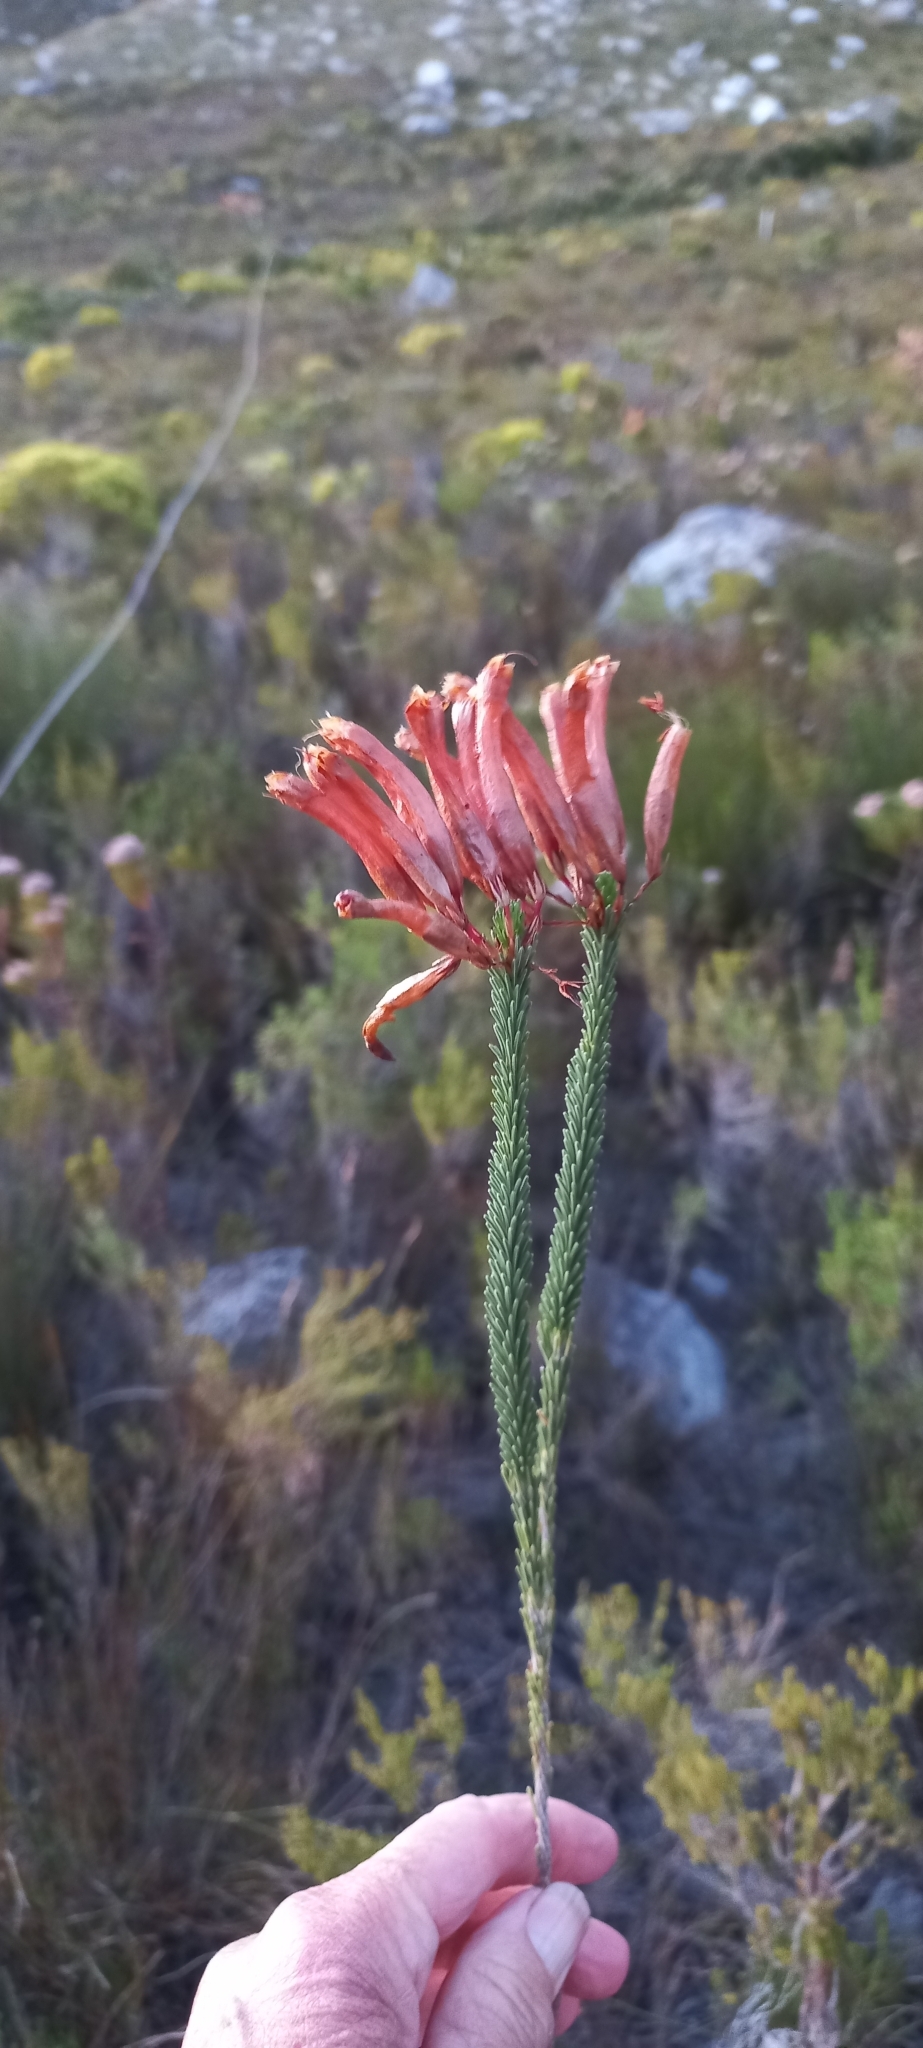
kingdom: Plantae
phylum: Tracheophyta
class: Magnoliopsida
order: Ericales
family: Ericaceae
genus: Erica
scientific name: Erica fascicularis
